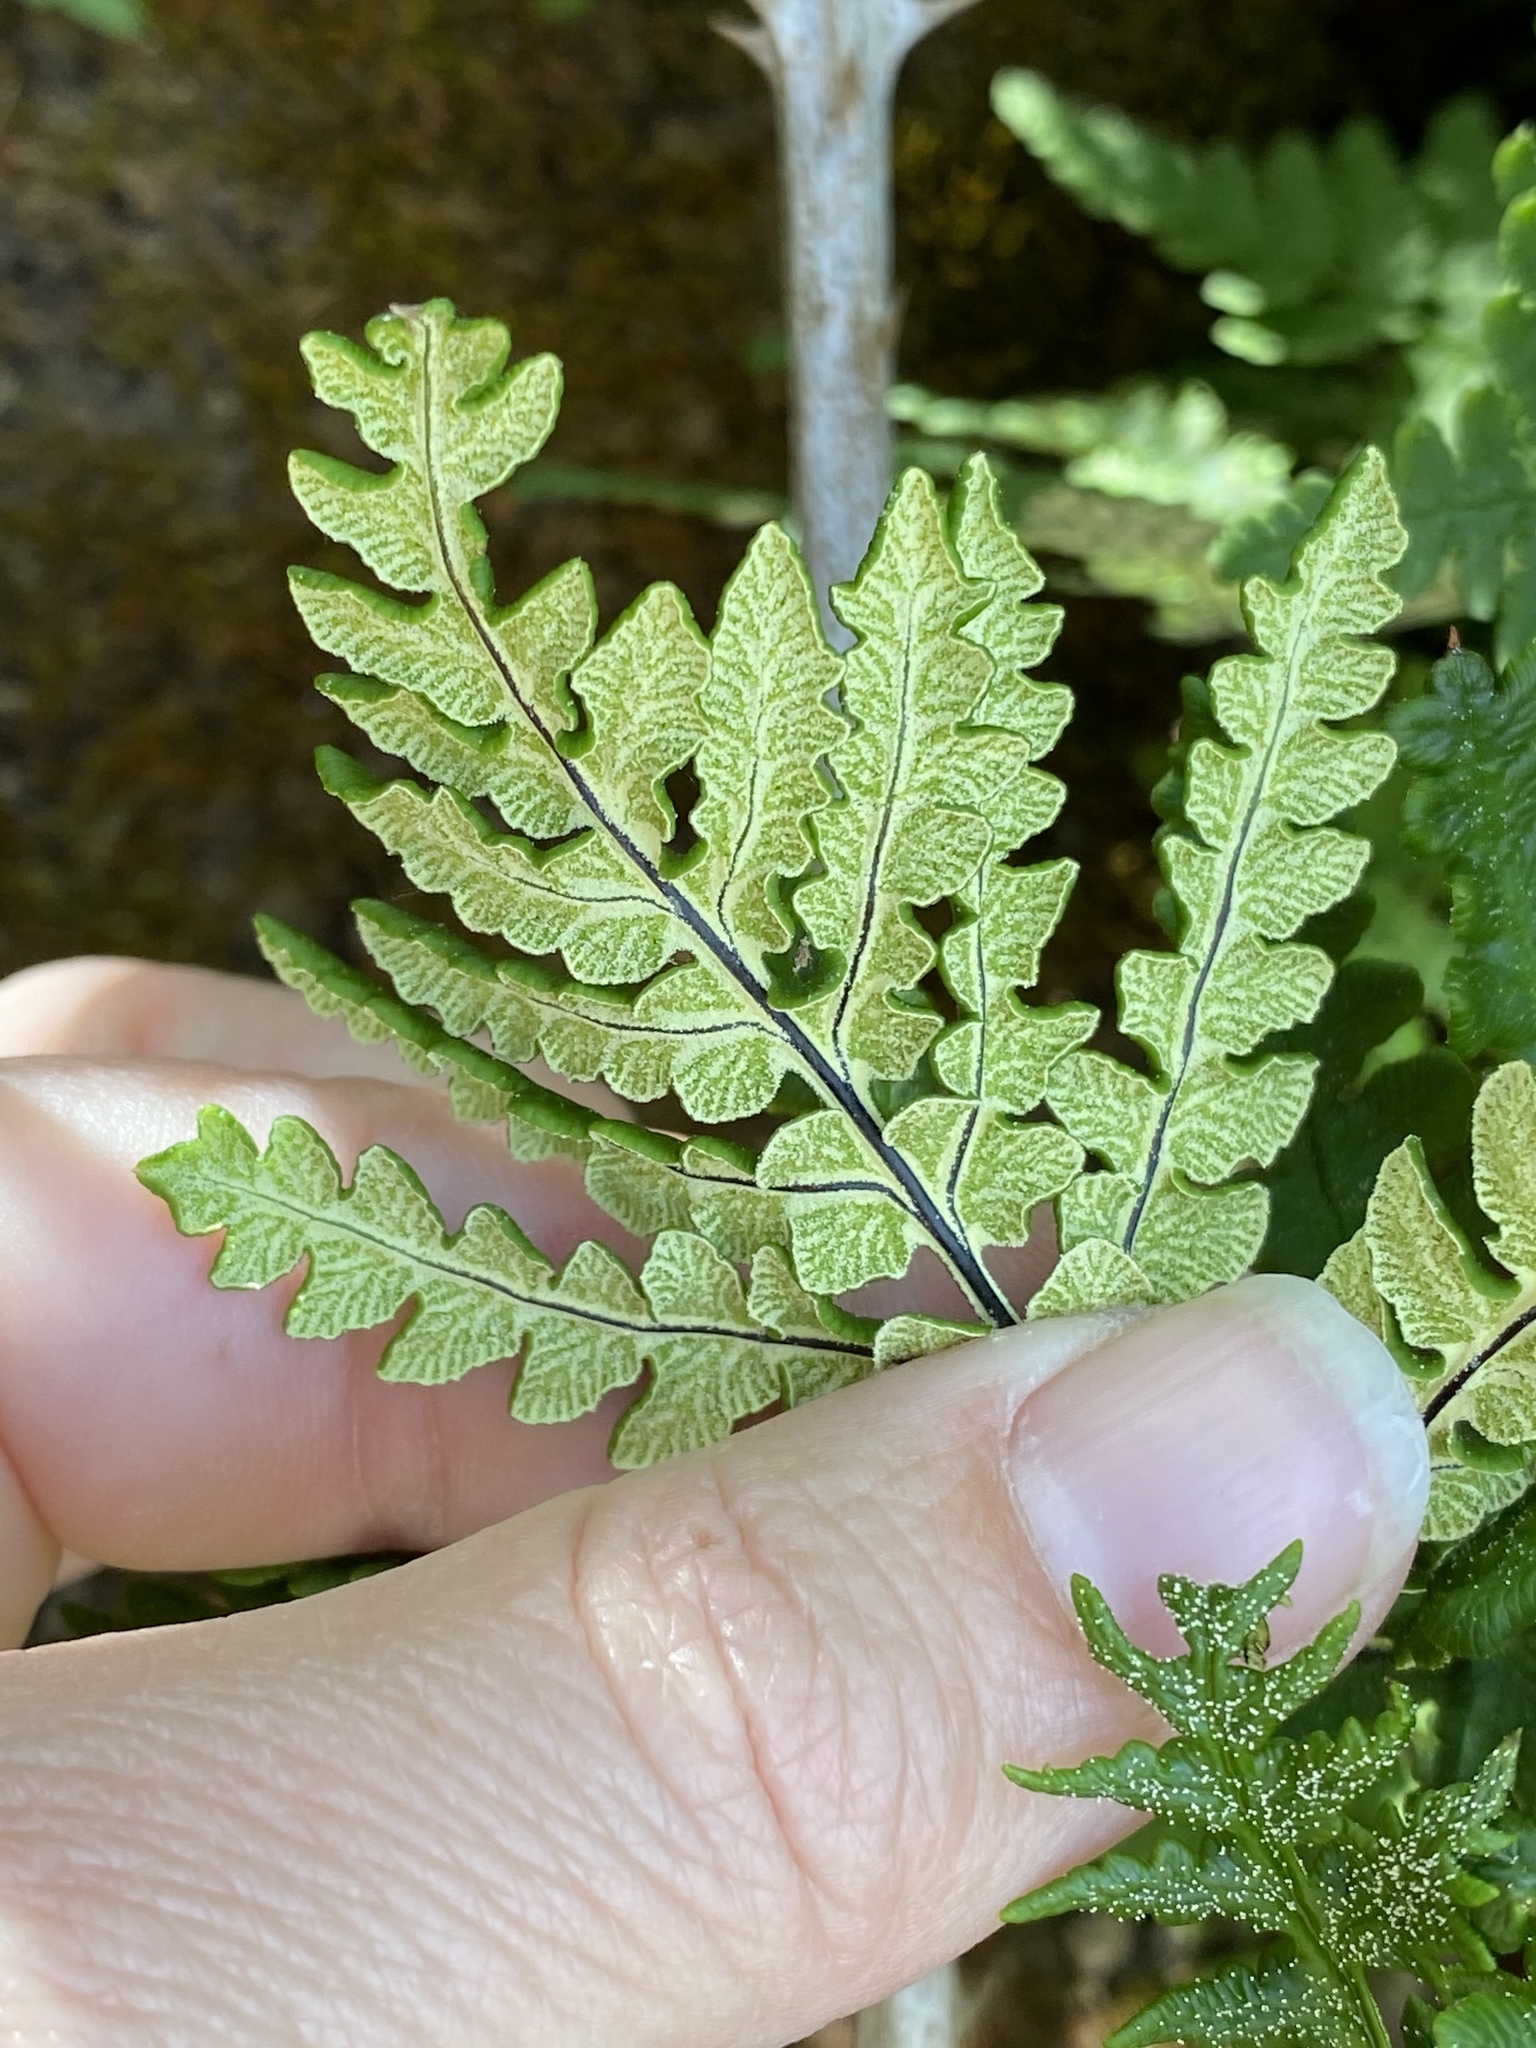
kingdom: Plantae
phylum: Tracheophyta
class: Polypodiopsida
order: Polypodiales
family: Pteridaceae
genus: Pentagramma
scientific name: Pentagramma triangularis
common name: Gold fern
